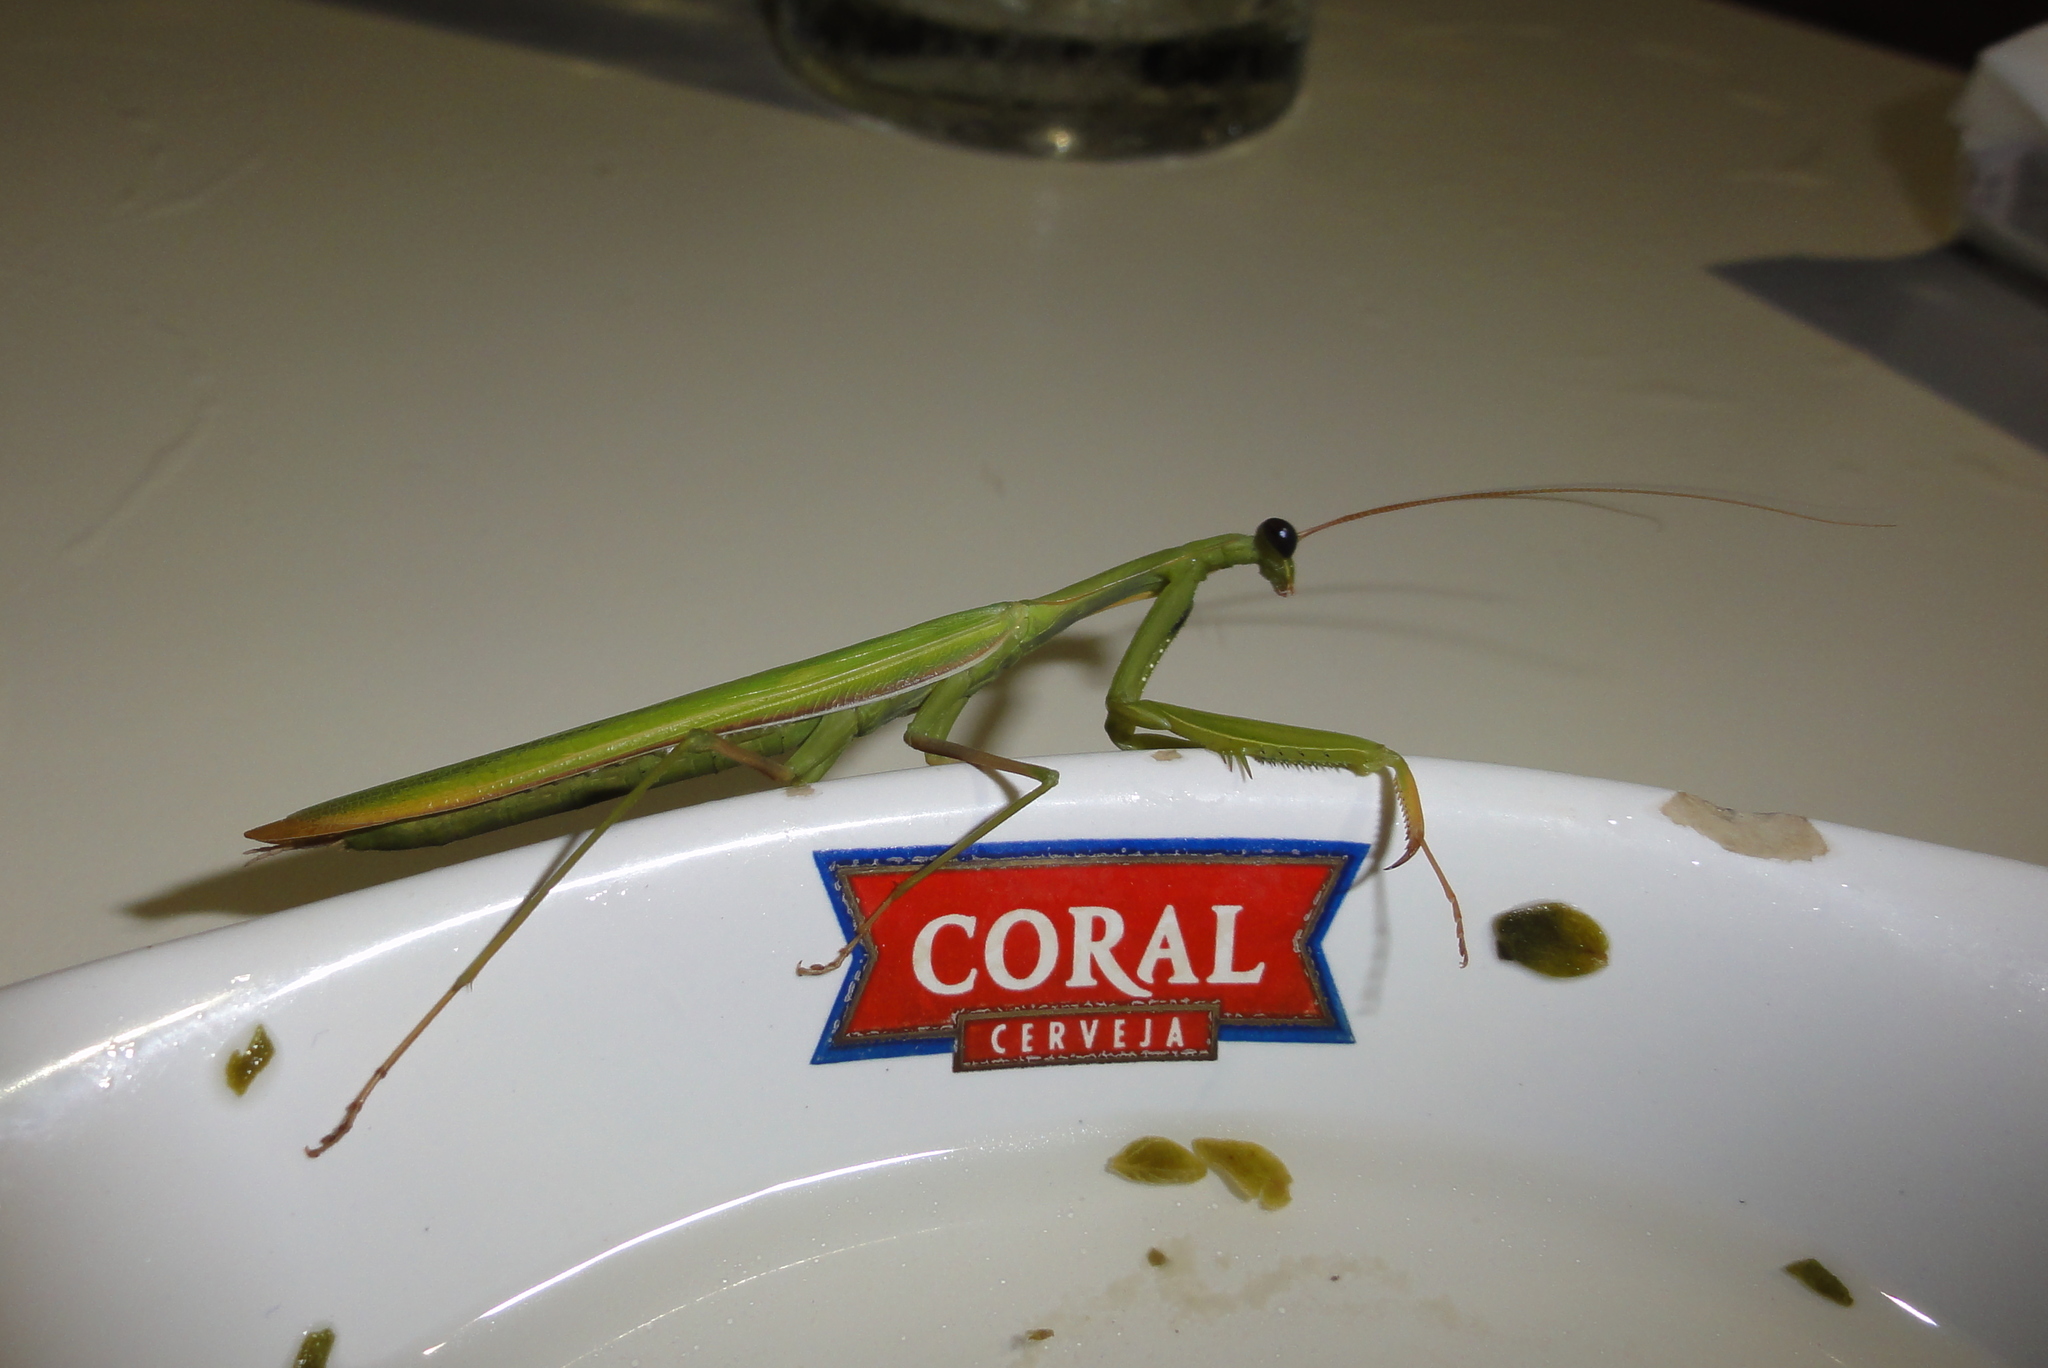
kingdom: Animalia
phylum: Arthropoda
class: Insecta
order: Mantodea
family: Mantidae
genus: Mantis
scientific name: Mantis religiosa
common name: Praying mantis
